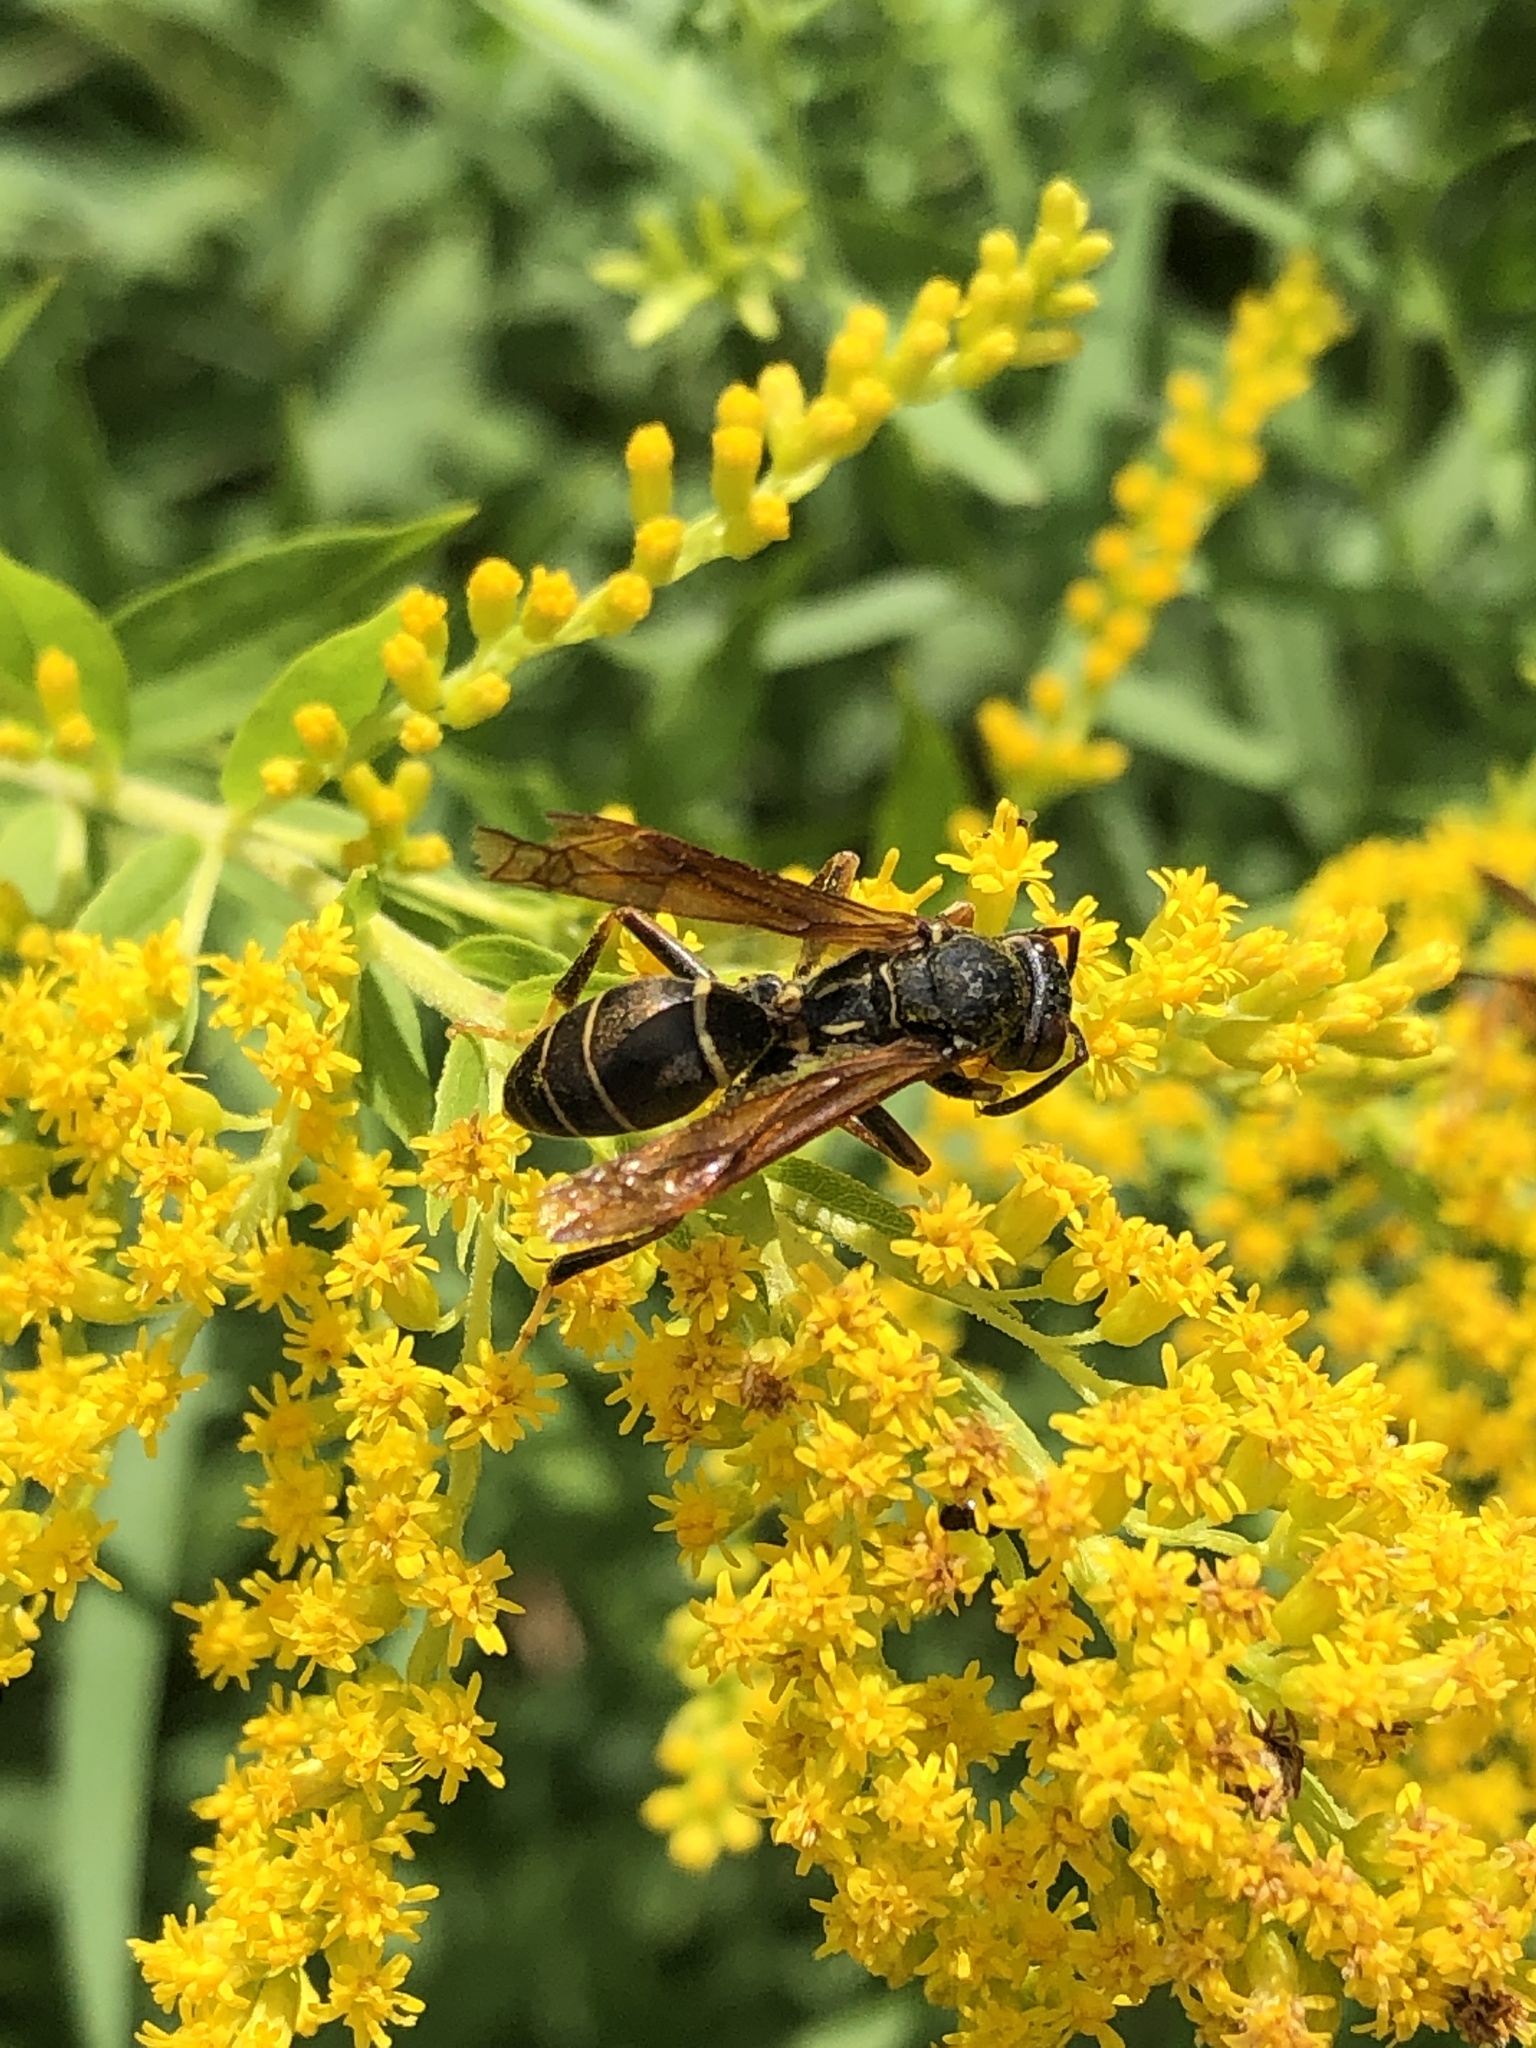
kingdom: Animalia
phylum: Arthropoda
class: Insecta
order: Hymenoptera
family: Eumenidae
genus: Polistes
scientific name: Polistes fuscatus
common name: Dark paper wasp
